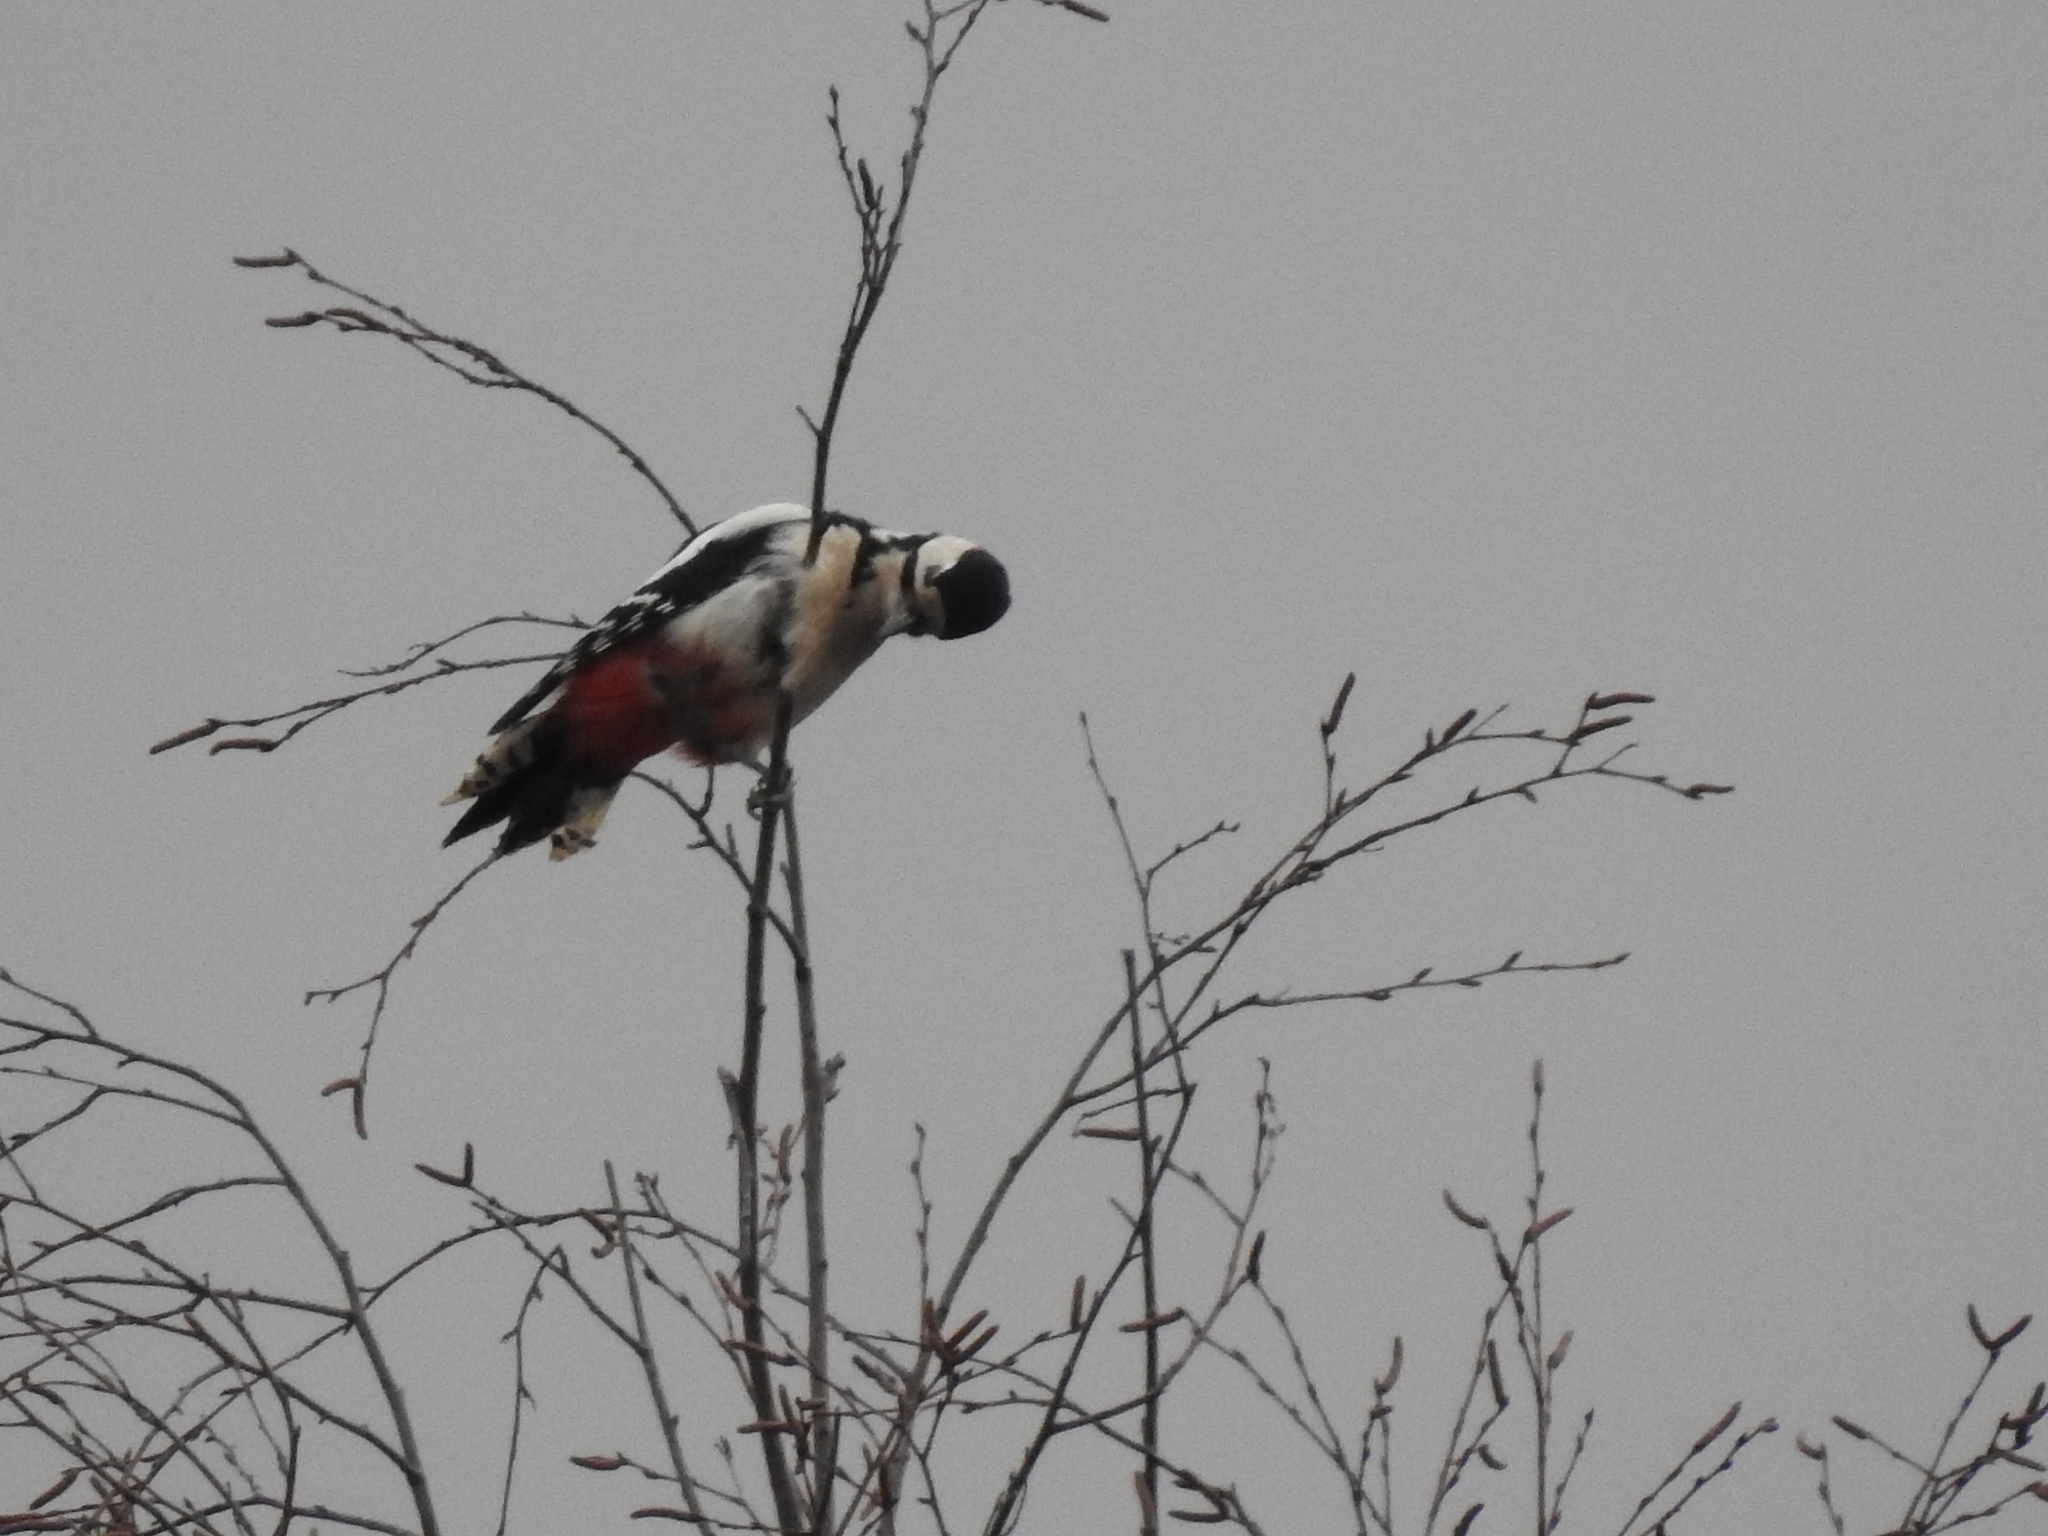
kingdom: Animalia
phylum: Chordata
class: Aves
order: Piciformes
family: Picidae
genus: Dendrocopos
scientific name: Dendrocopos major
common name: Great spotted woodpecker
